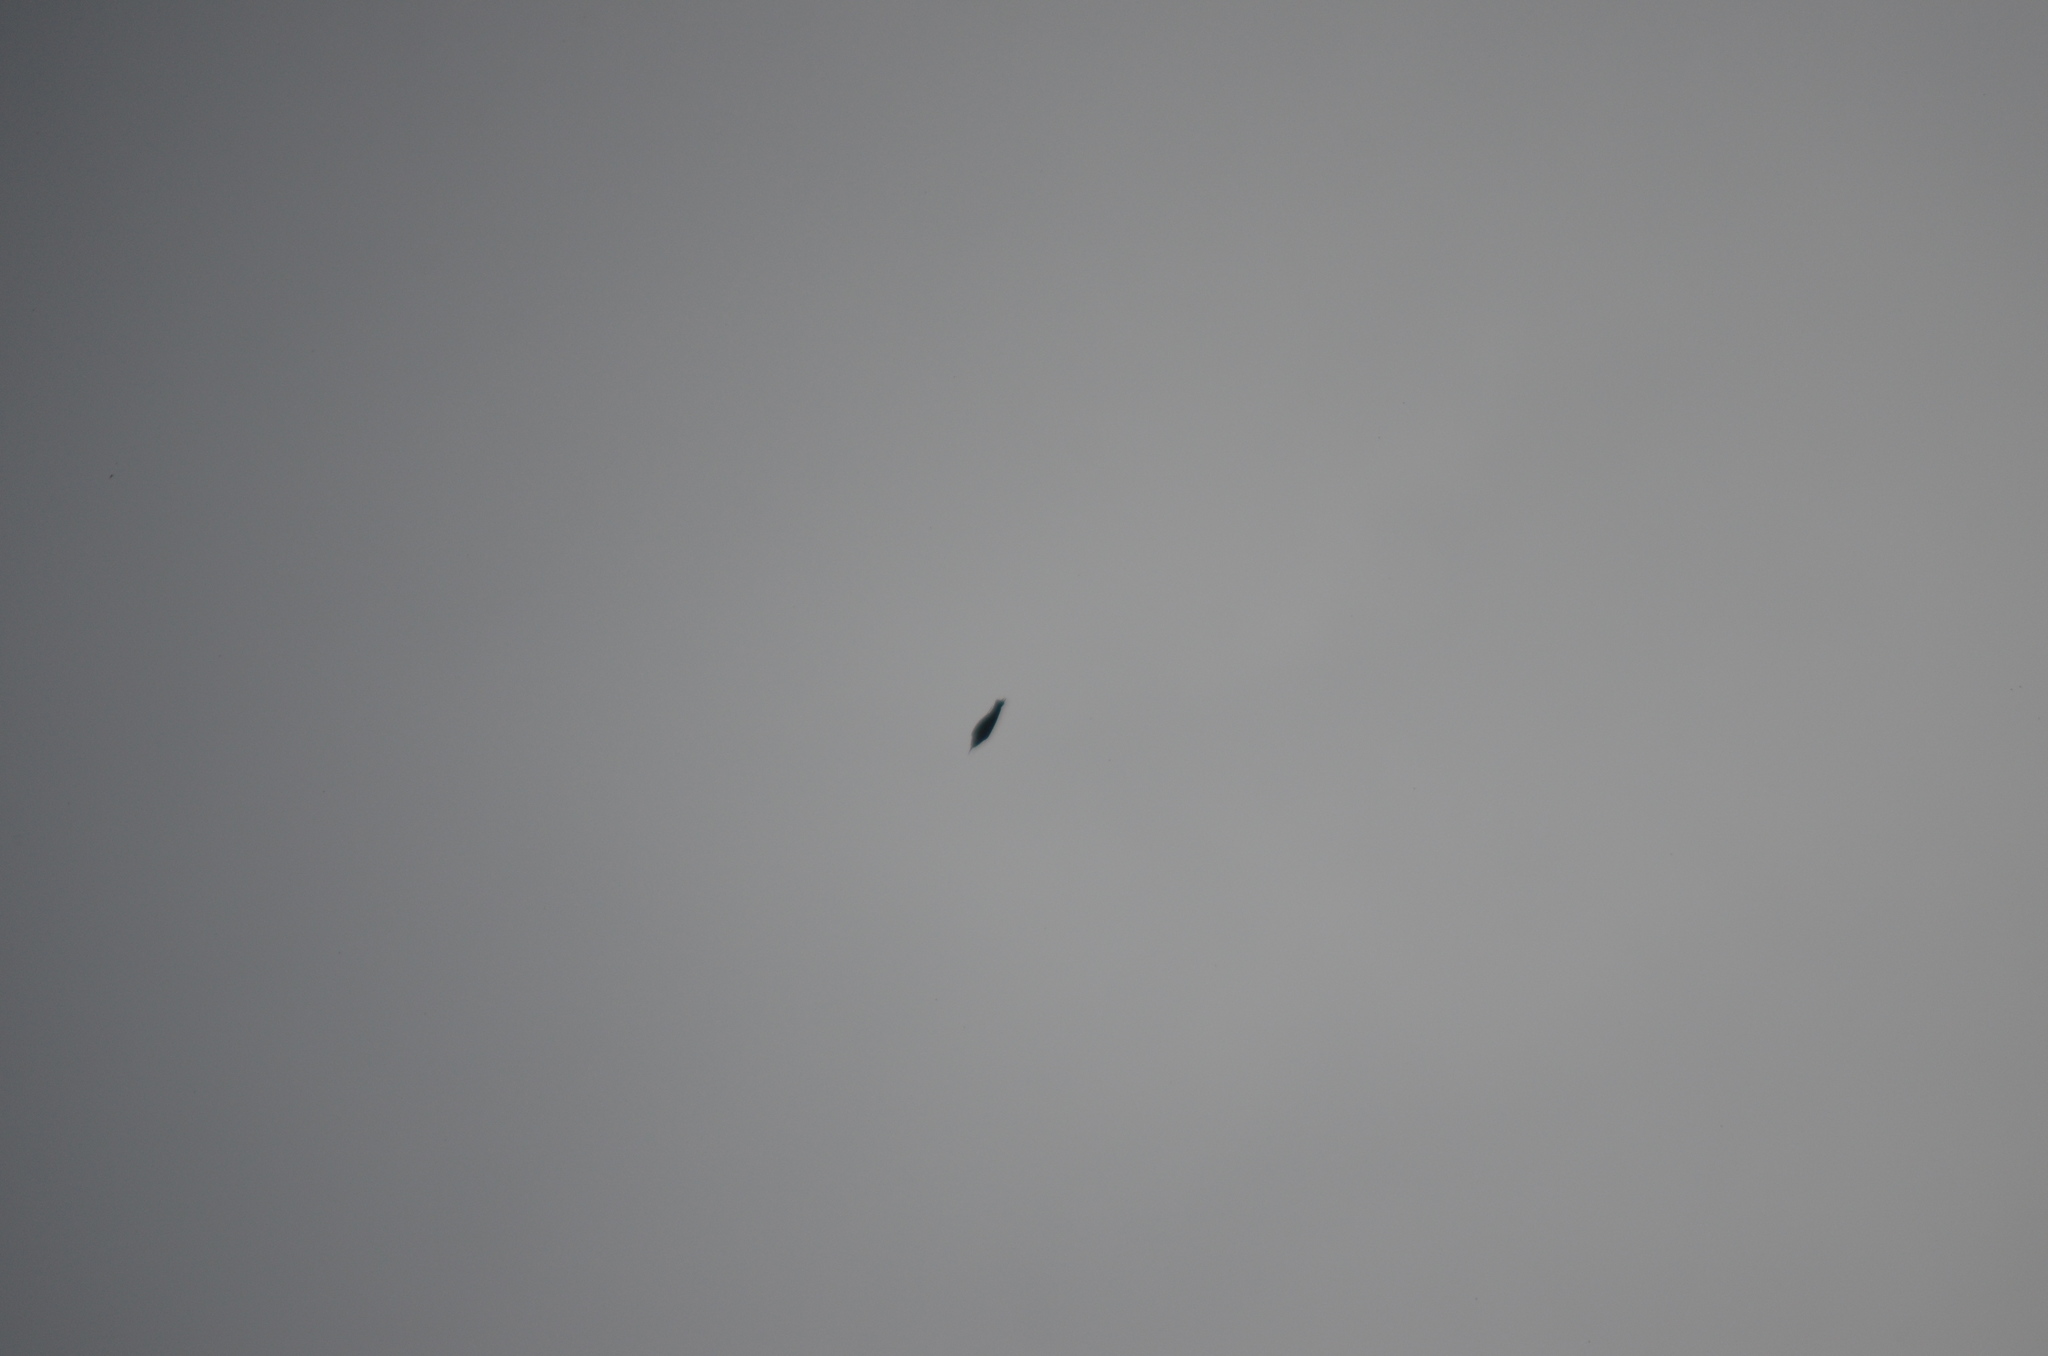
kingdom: Animalia
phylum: Chordata
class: Aves
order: Coraciiformes
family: Meropidae
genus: Merops
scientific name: Merops apiaster
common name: European bee-eater
